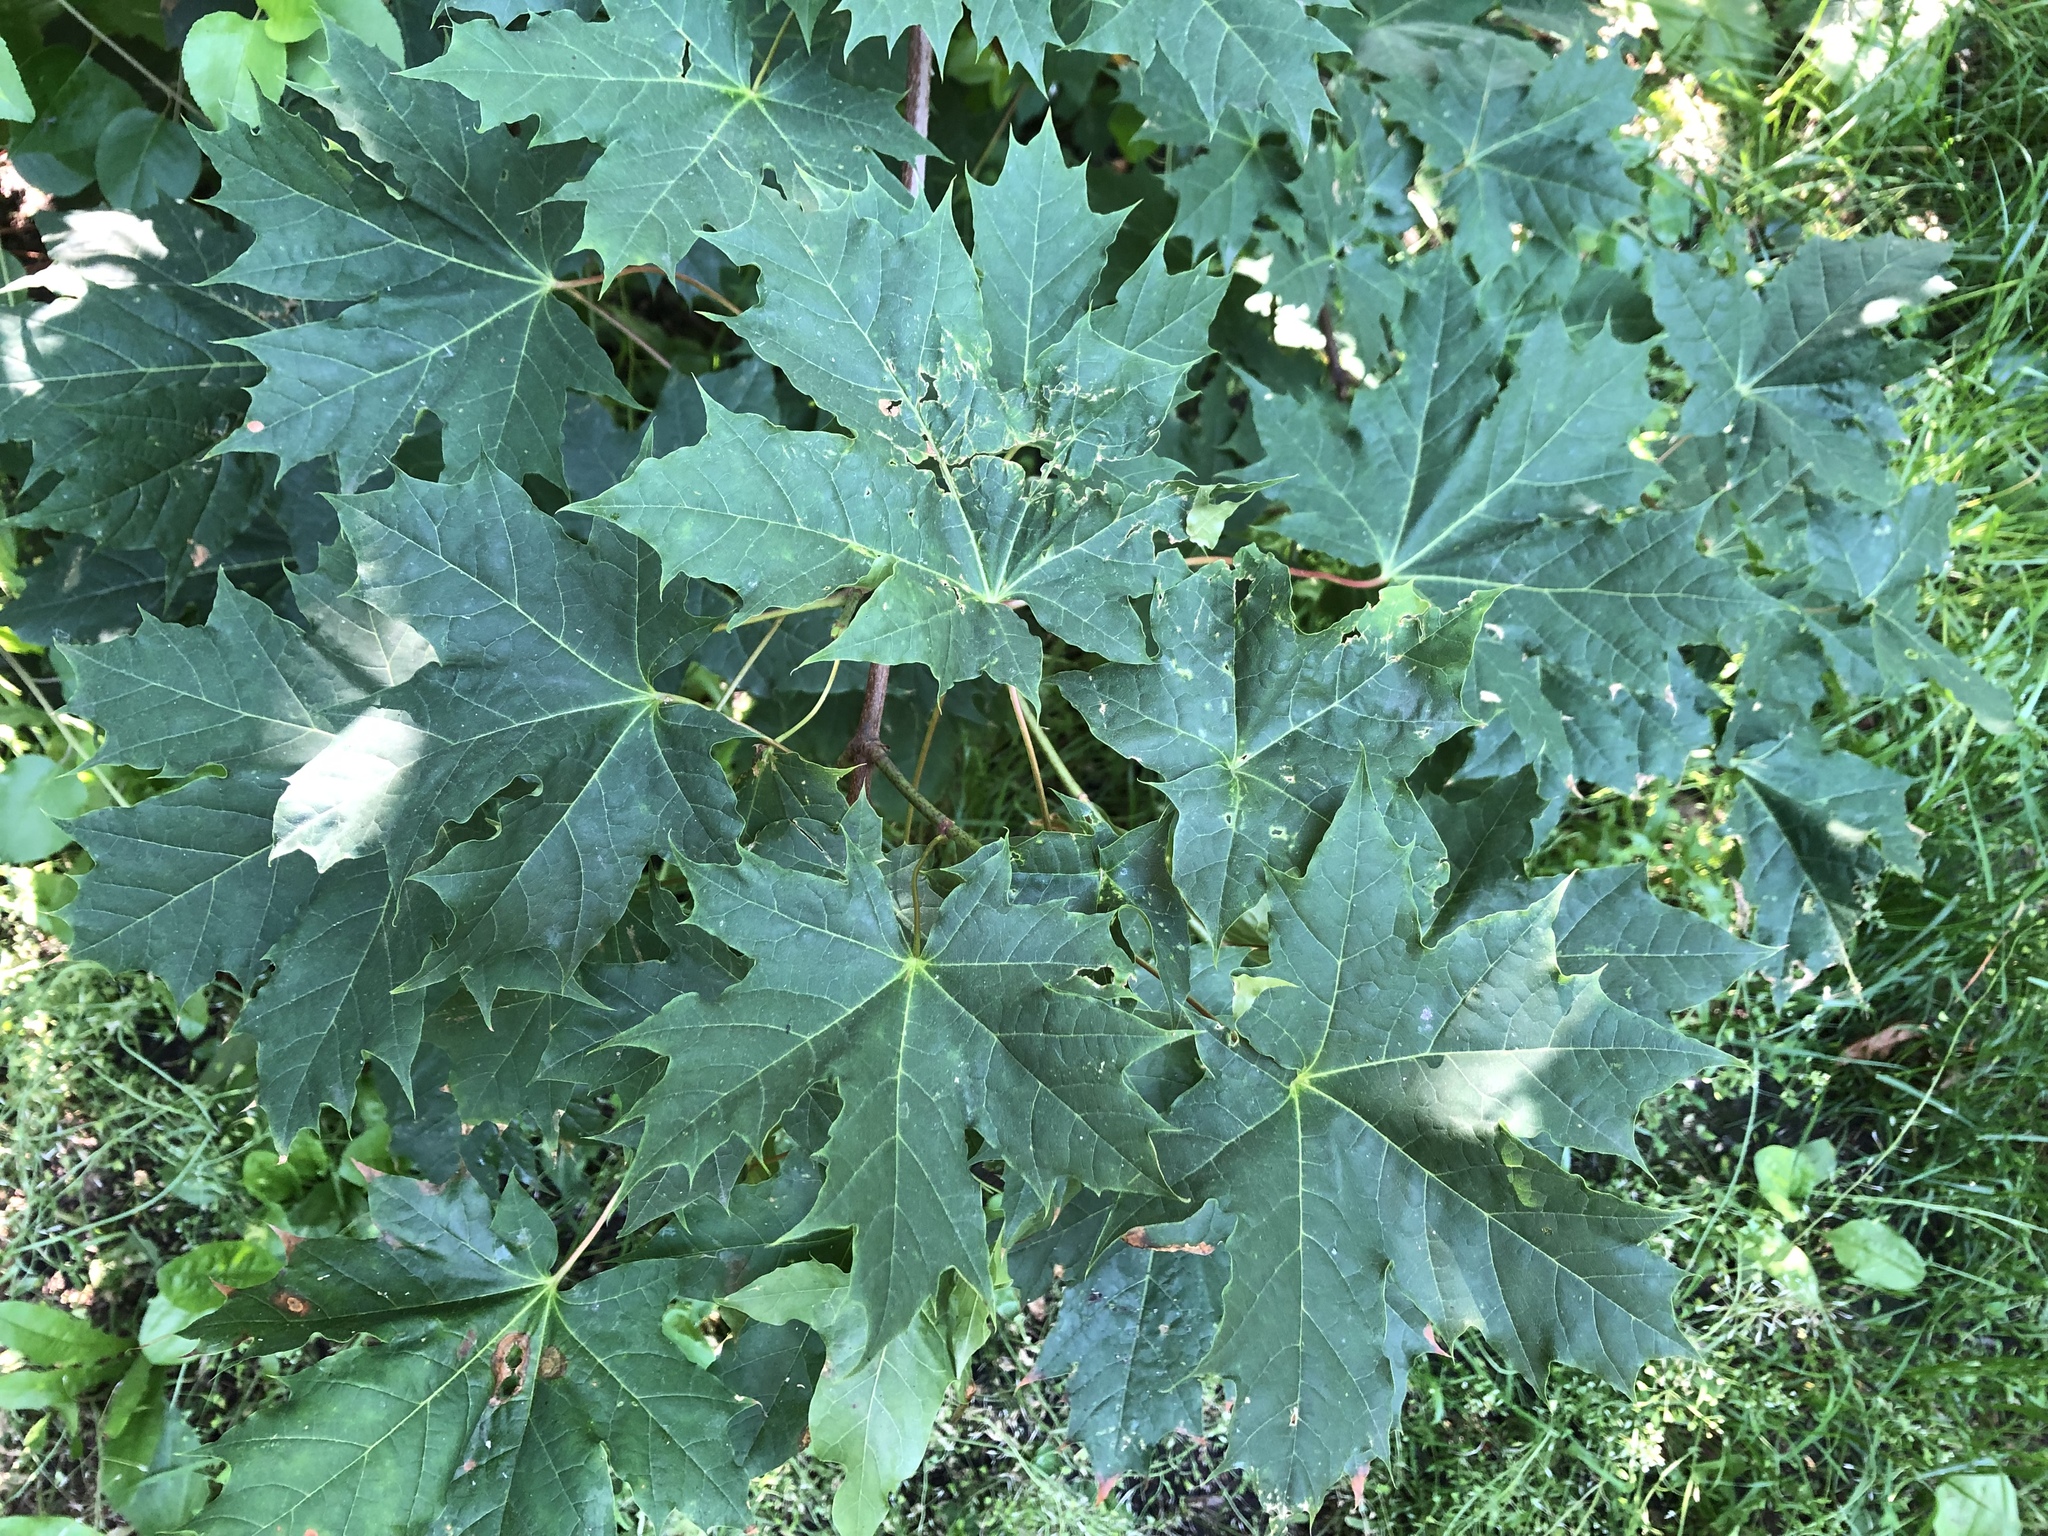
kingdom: Plantae
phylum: Tracheophyta
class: Magnoliopsida
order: Sapindales
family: Sapindaceae
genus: Acer
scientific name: Acer platanoides
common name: Norway maple
